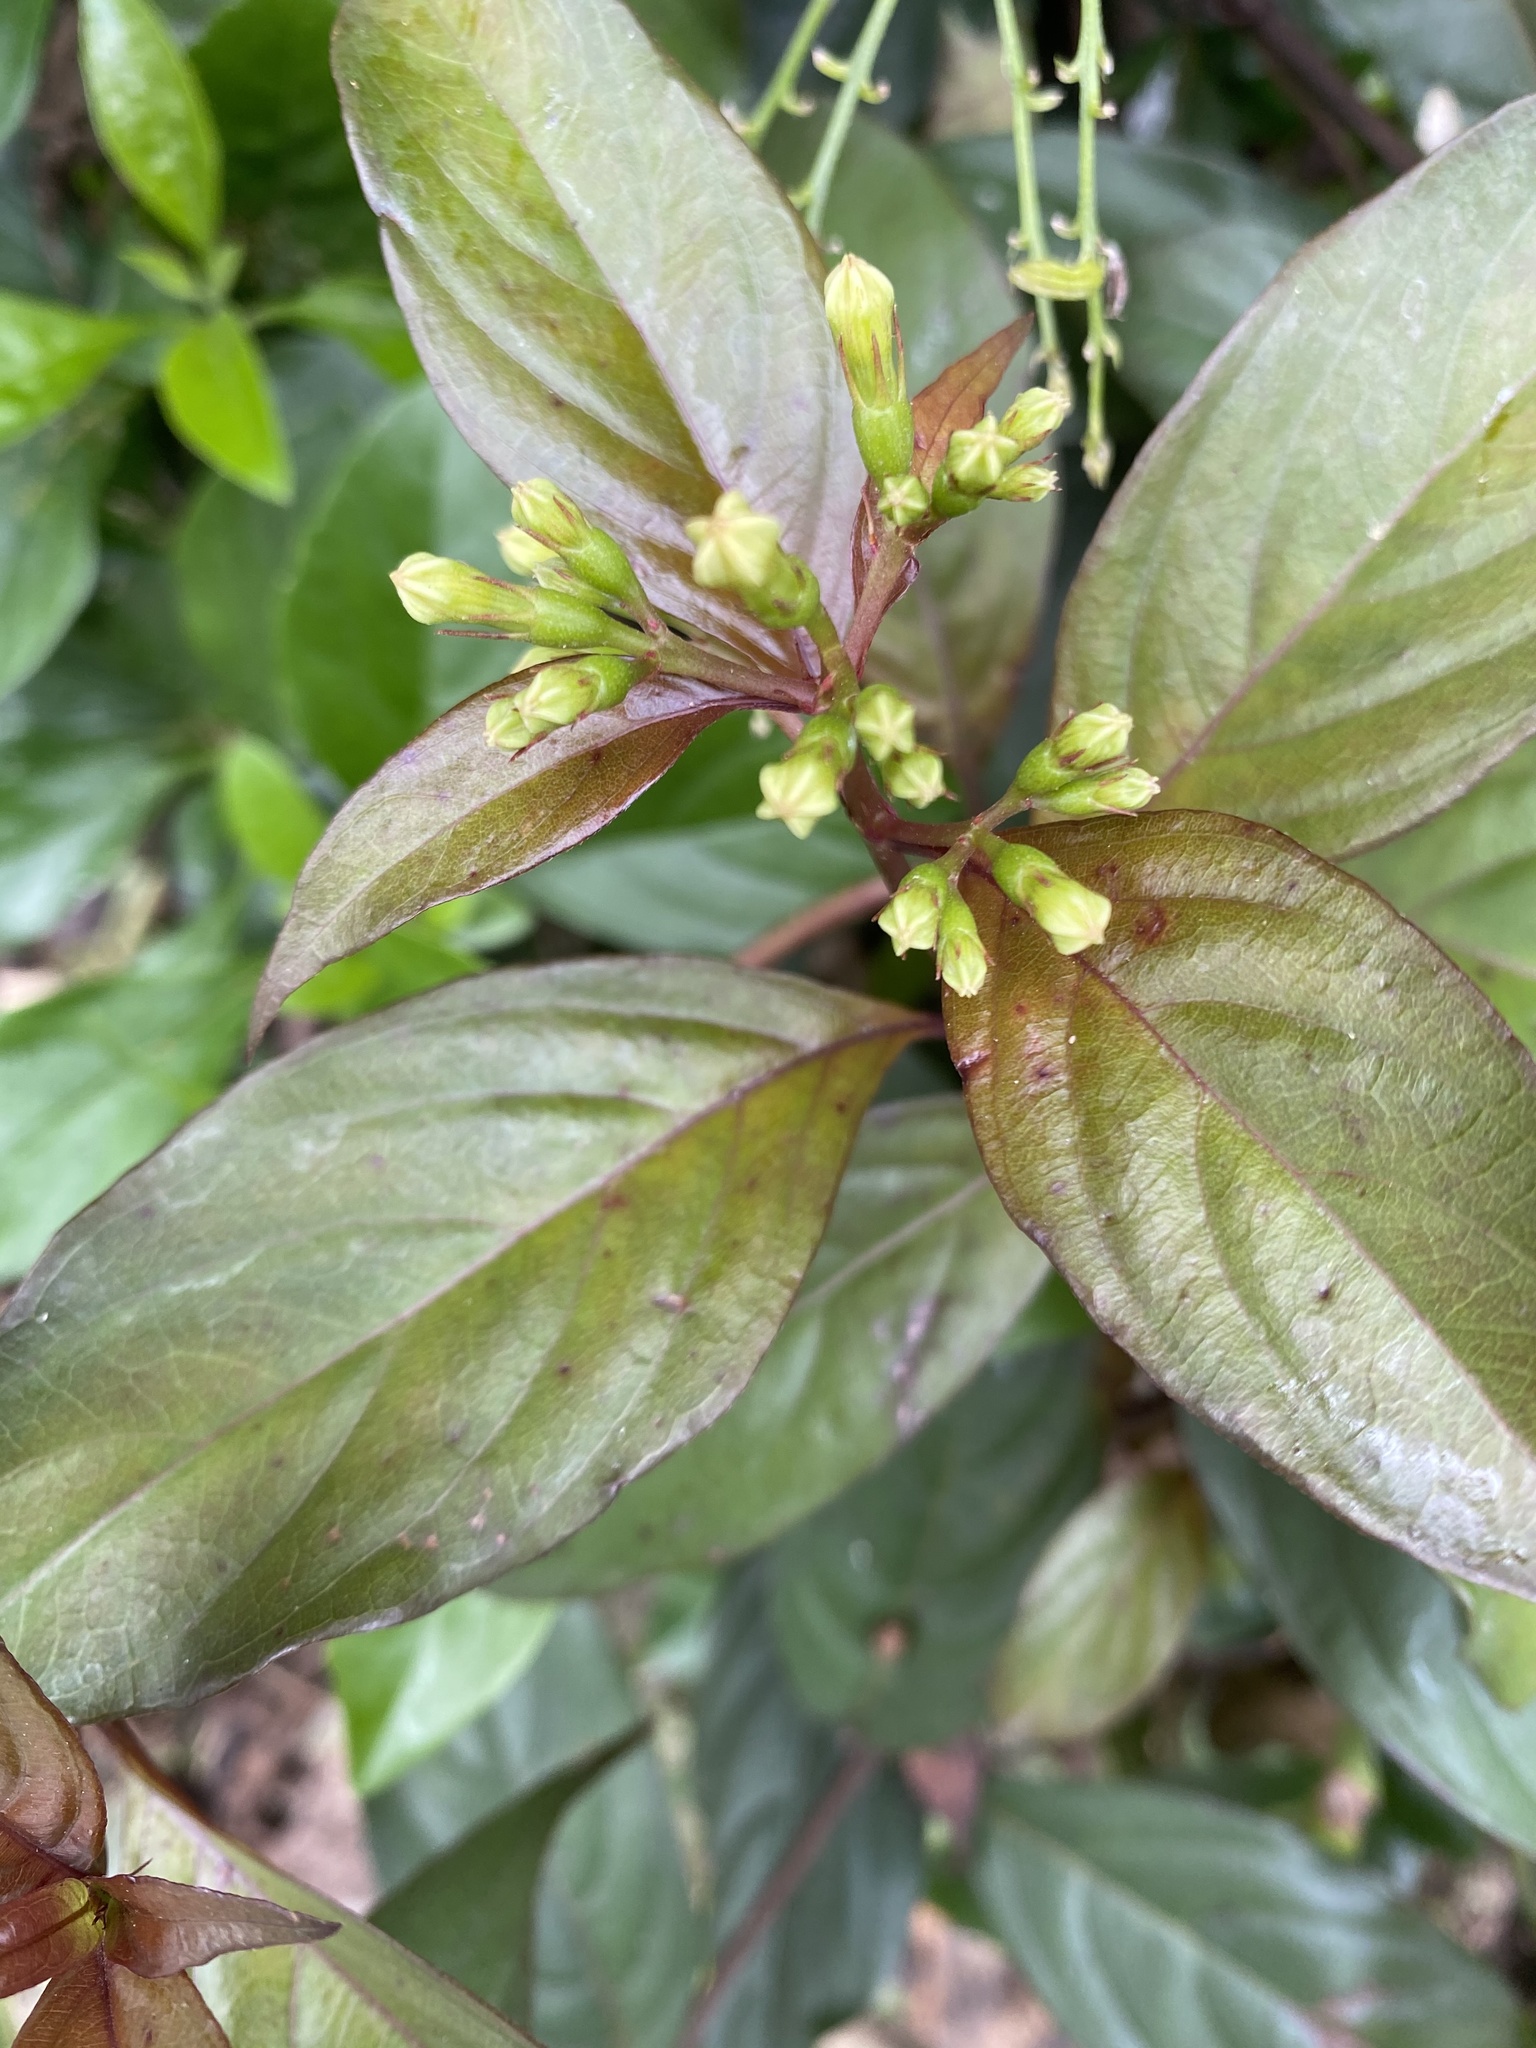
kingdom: Plantae
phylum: Tracheophyta
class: Magnoliopsida
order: Gentianales
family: Rubiaceae
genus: Mussaenda
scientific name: Mussaenda parviflora
